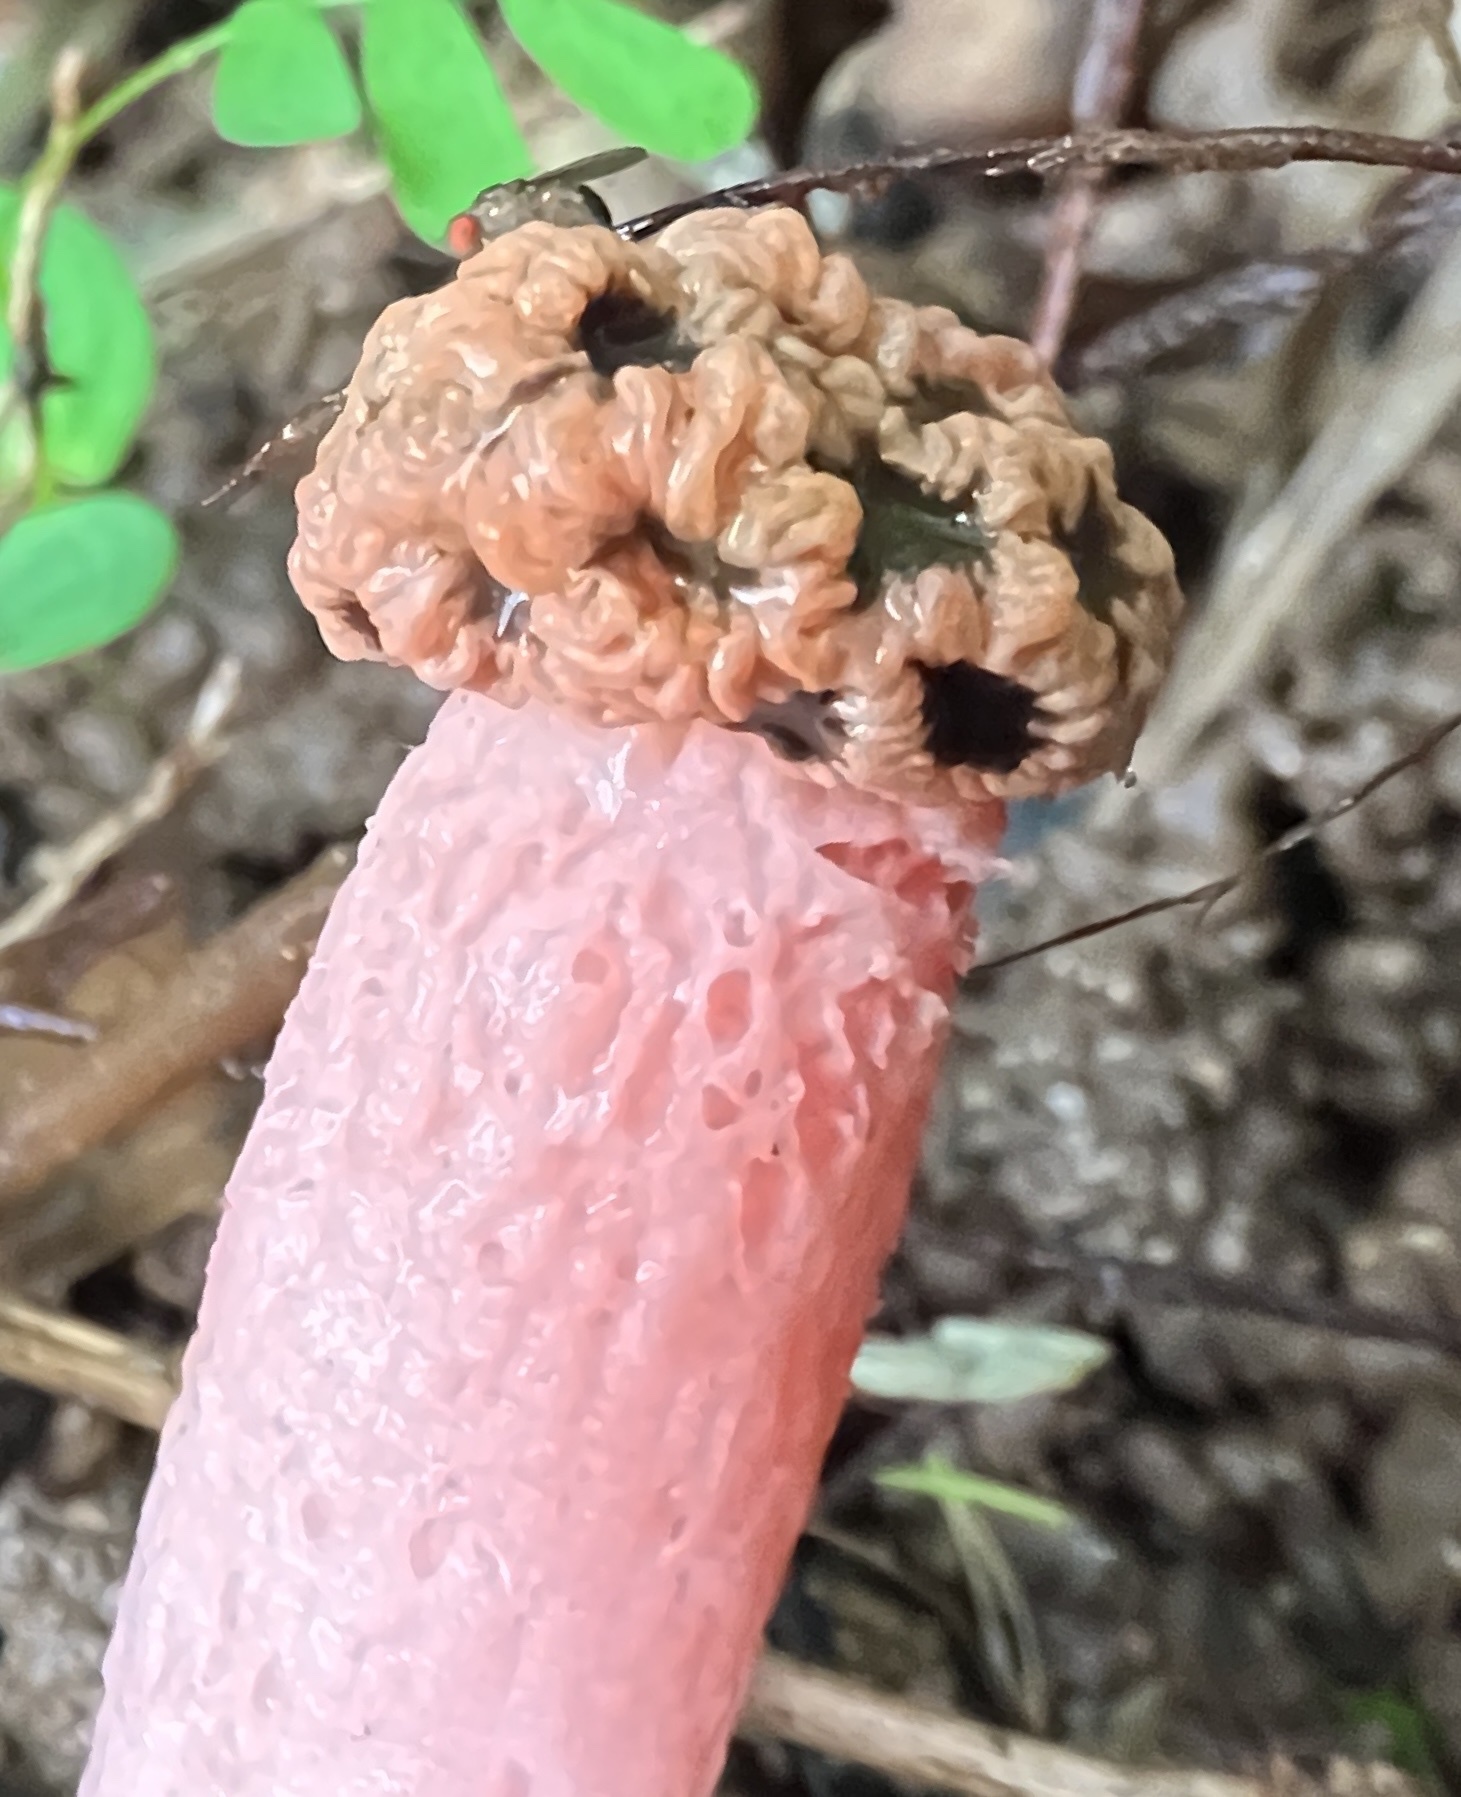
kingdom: Fungi
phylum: Basidiomycota
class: Agaricomycetes
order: Phallales
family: Phallaceae
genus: Lysurus
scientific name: Lysurus periphragmoides
